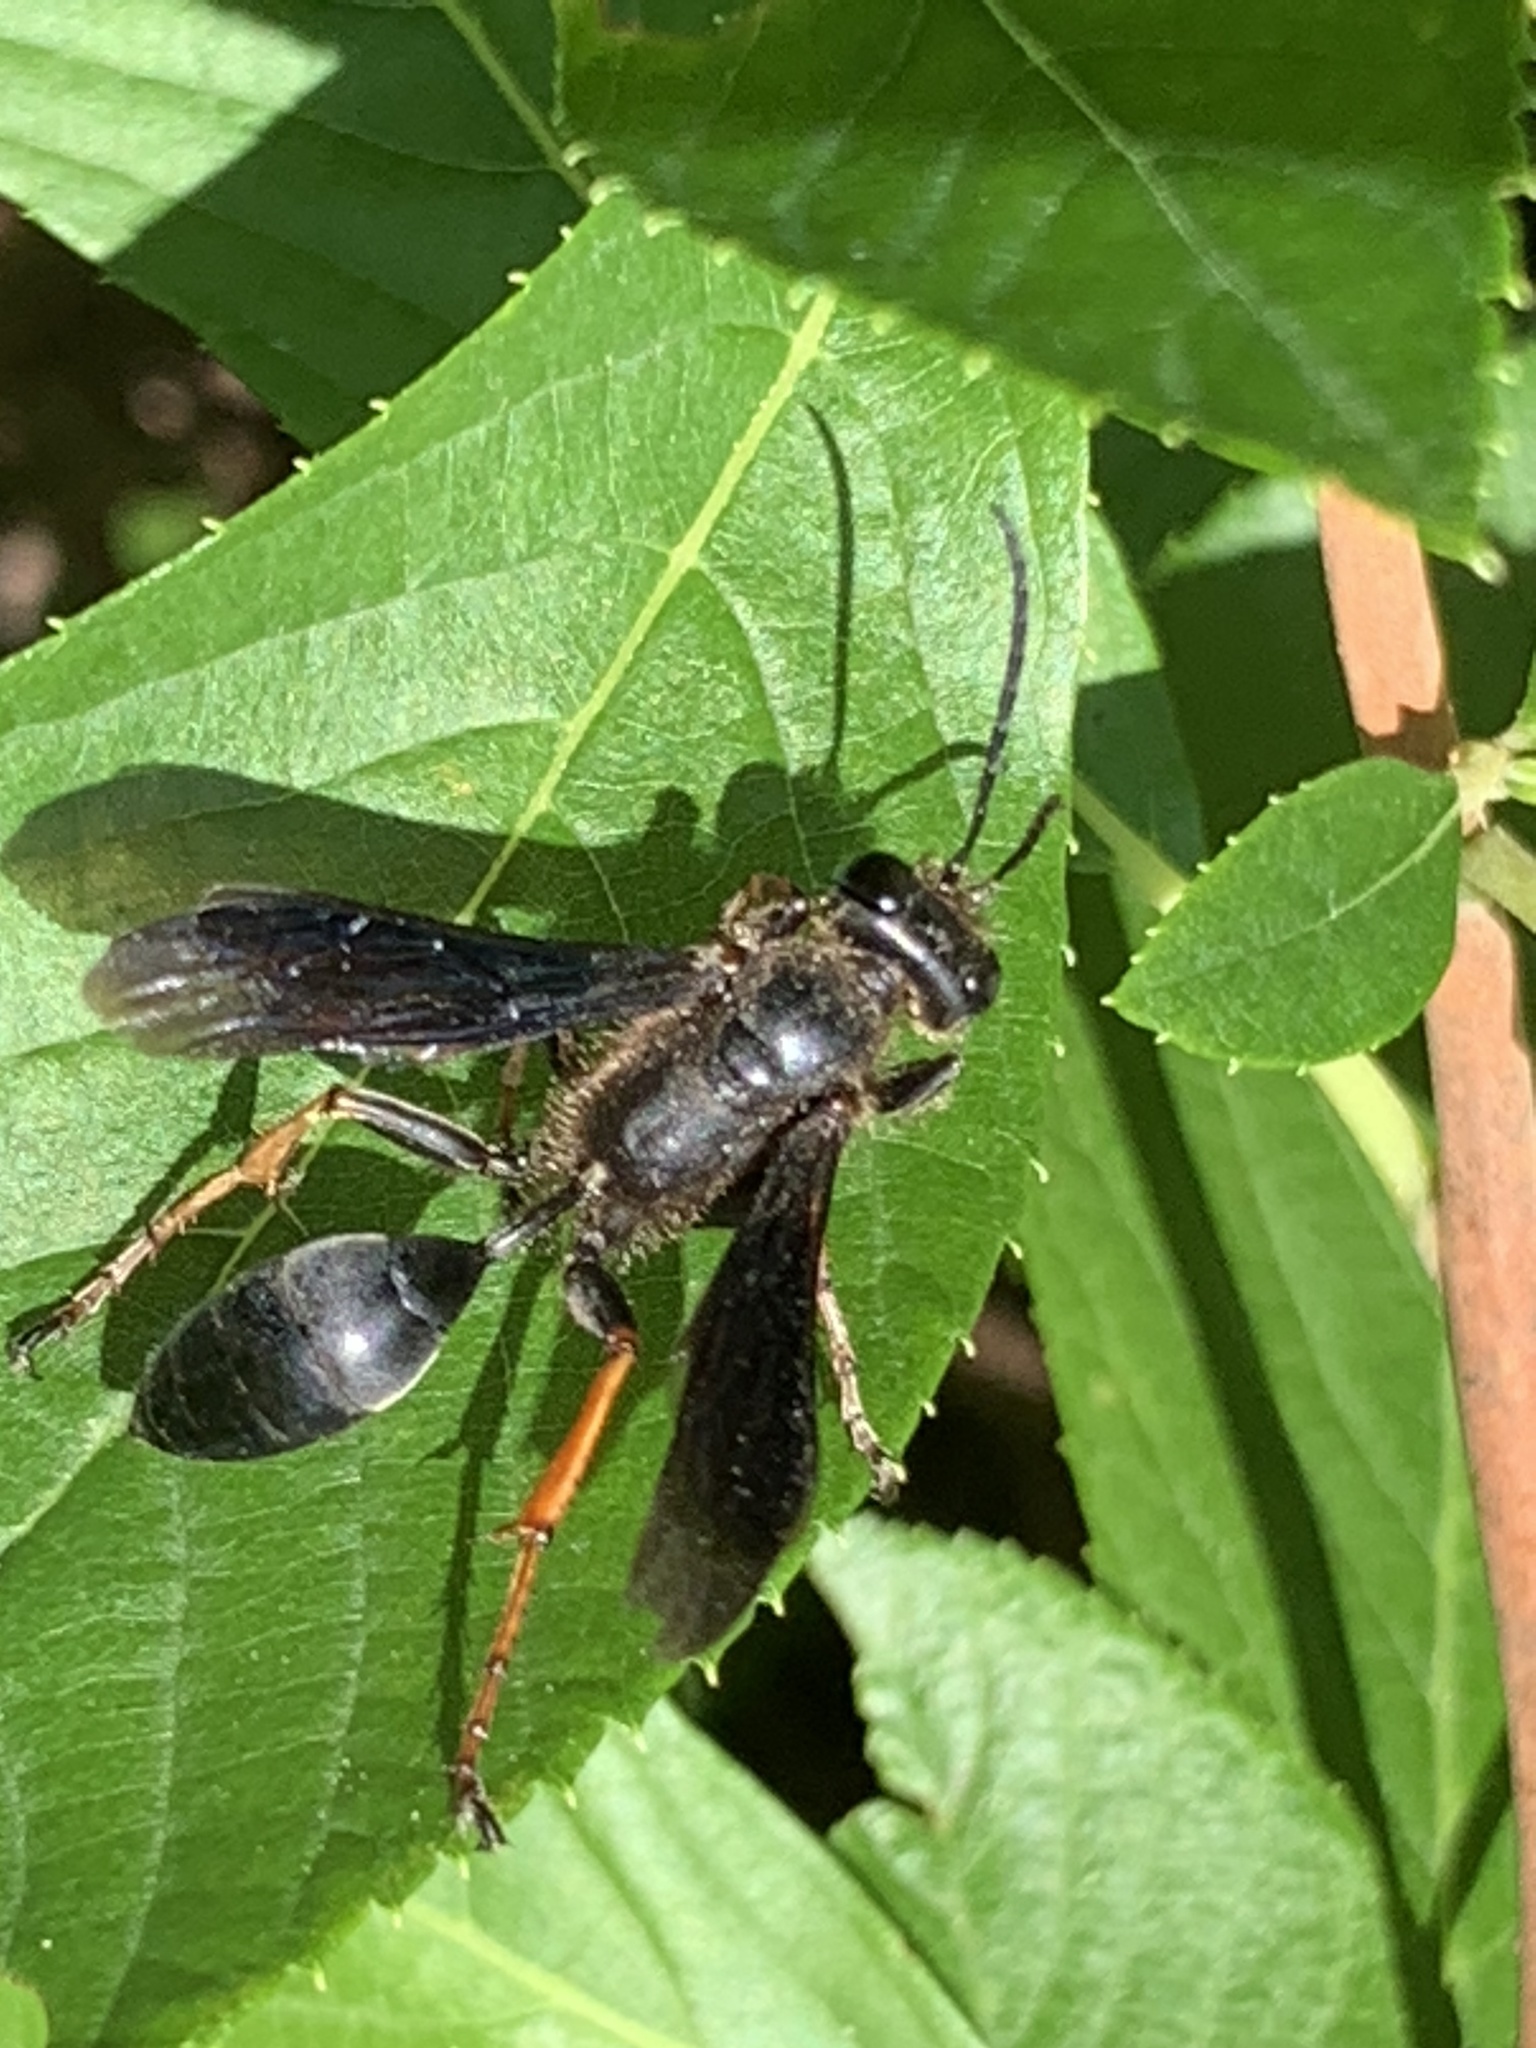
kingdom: Animalia
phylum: Arthropoda
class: Insecta
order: Hymenoptera
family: Sphecidae
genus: Isodontia
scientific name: Isodontia auripes
